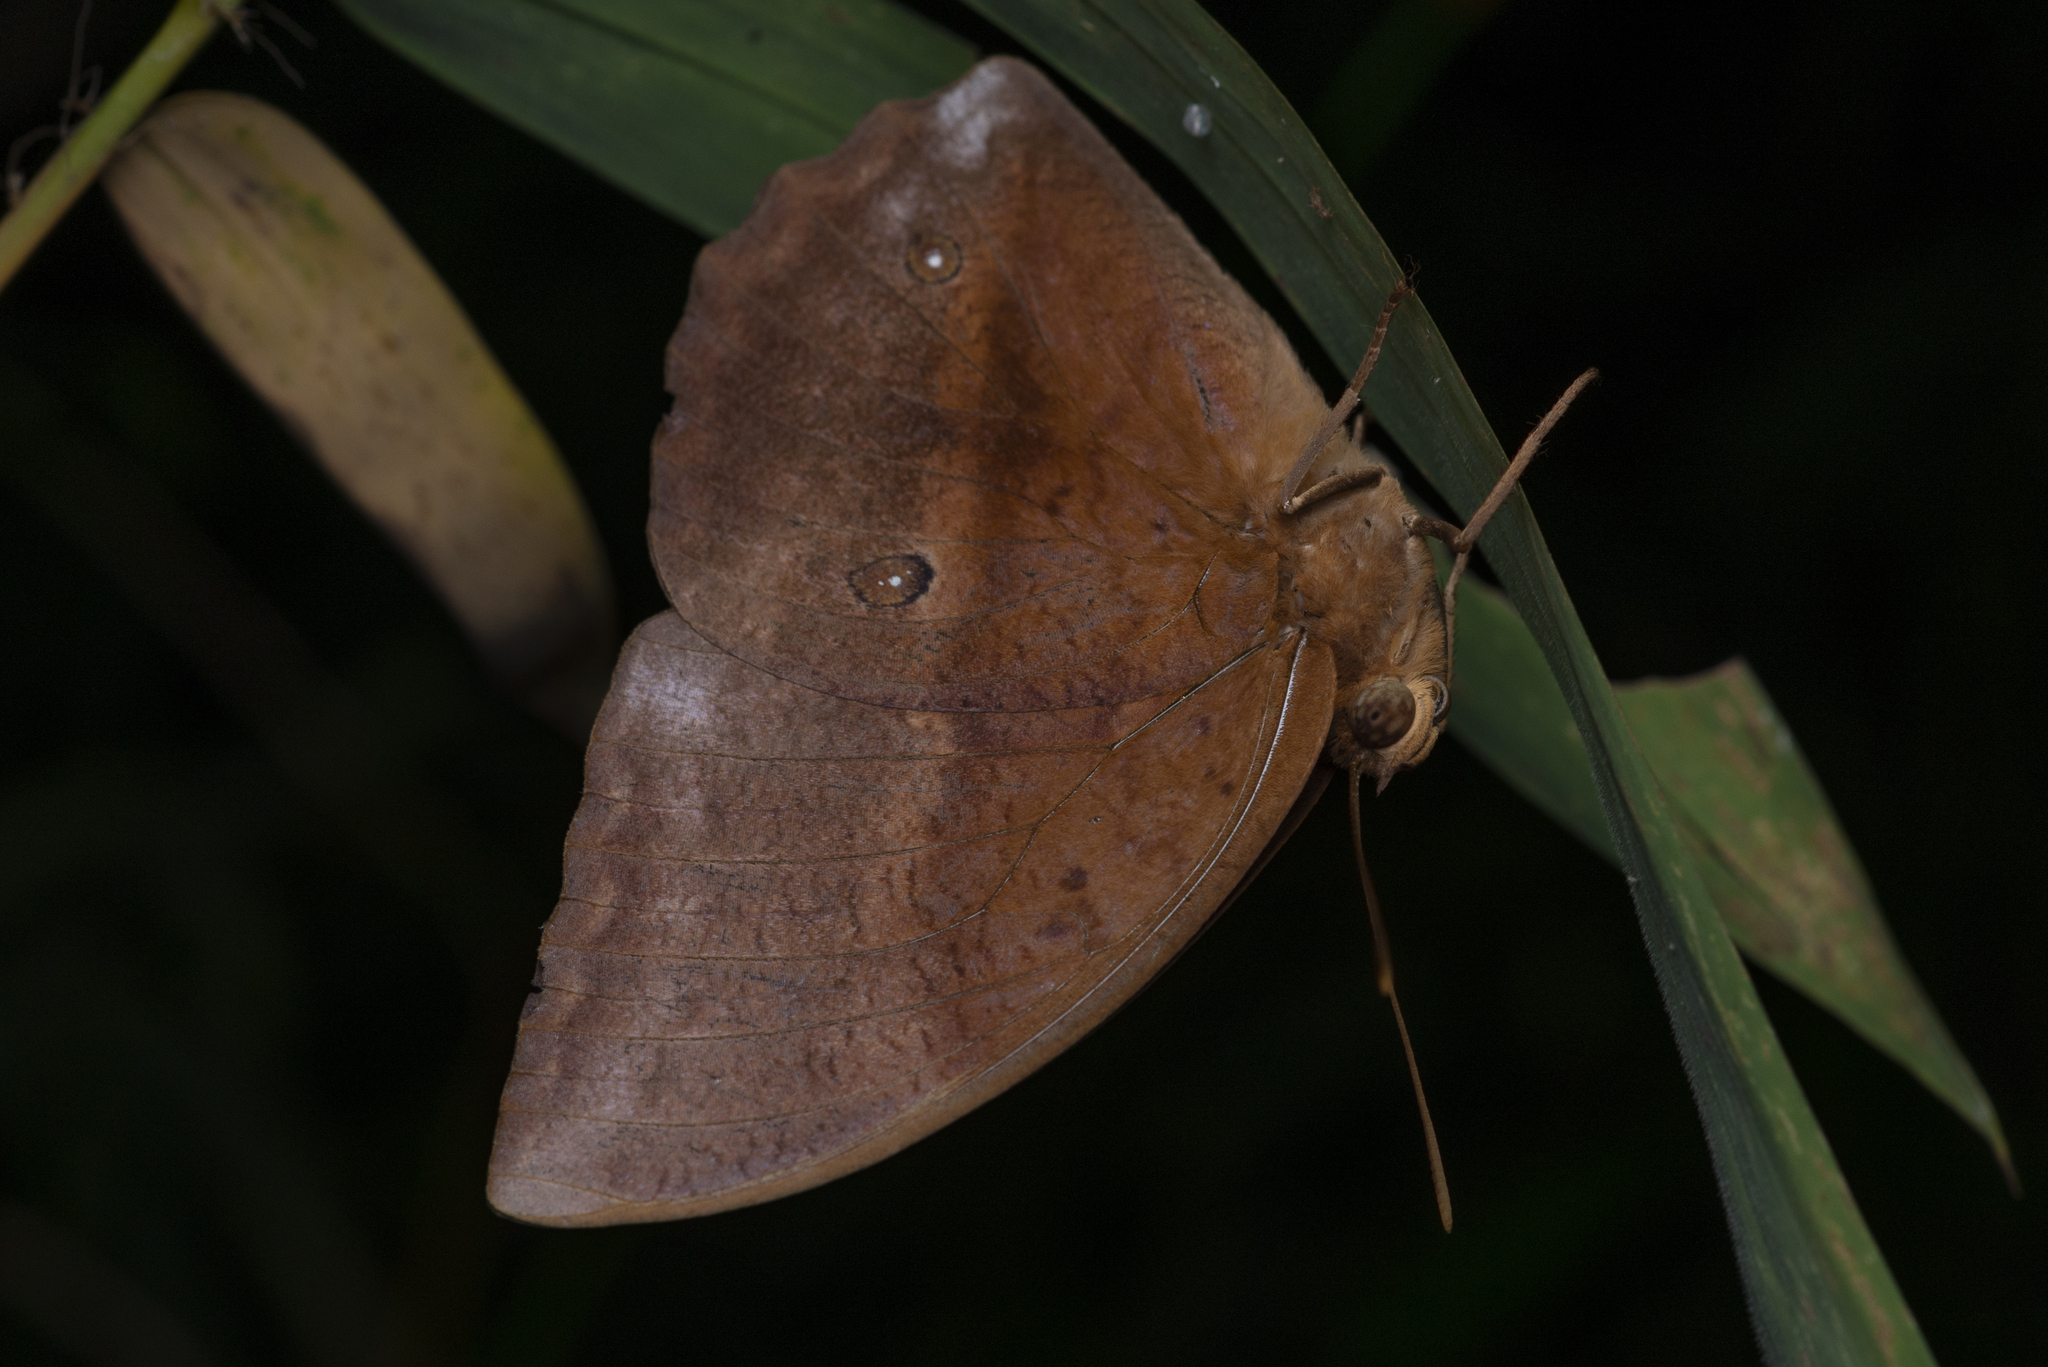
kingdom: Animalia
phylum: Arthropoda
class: Insecta
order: Lepidoptera
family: Nymphalidae
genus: Discophora
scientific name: Discophora sondaica
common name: Common duffer
